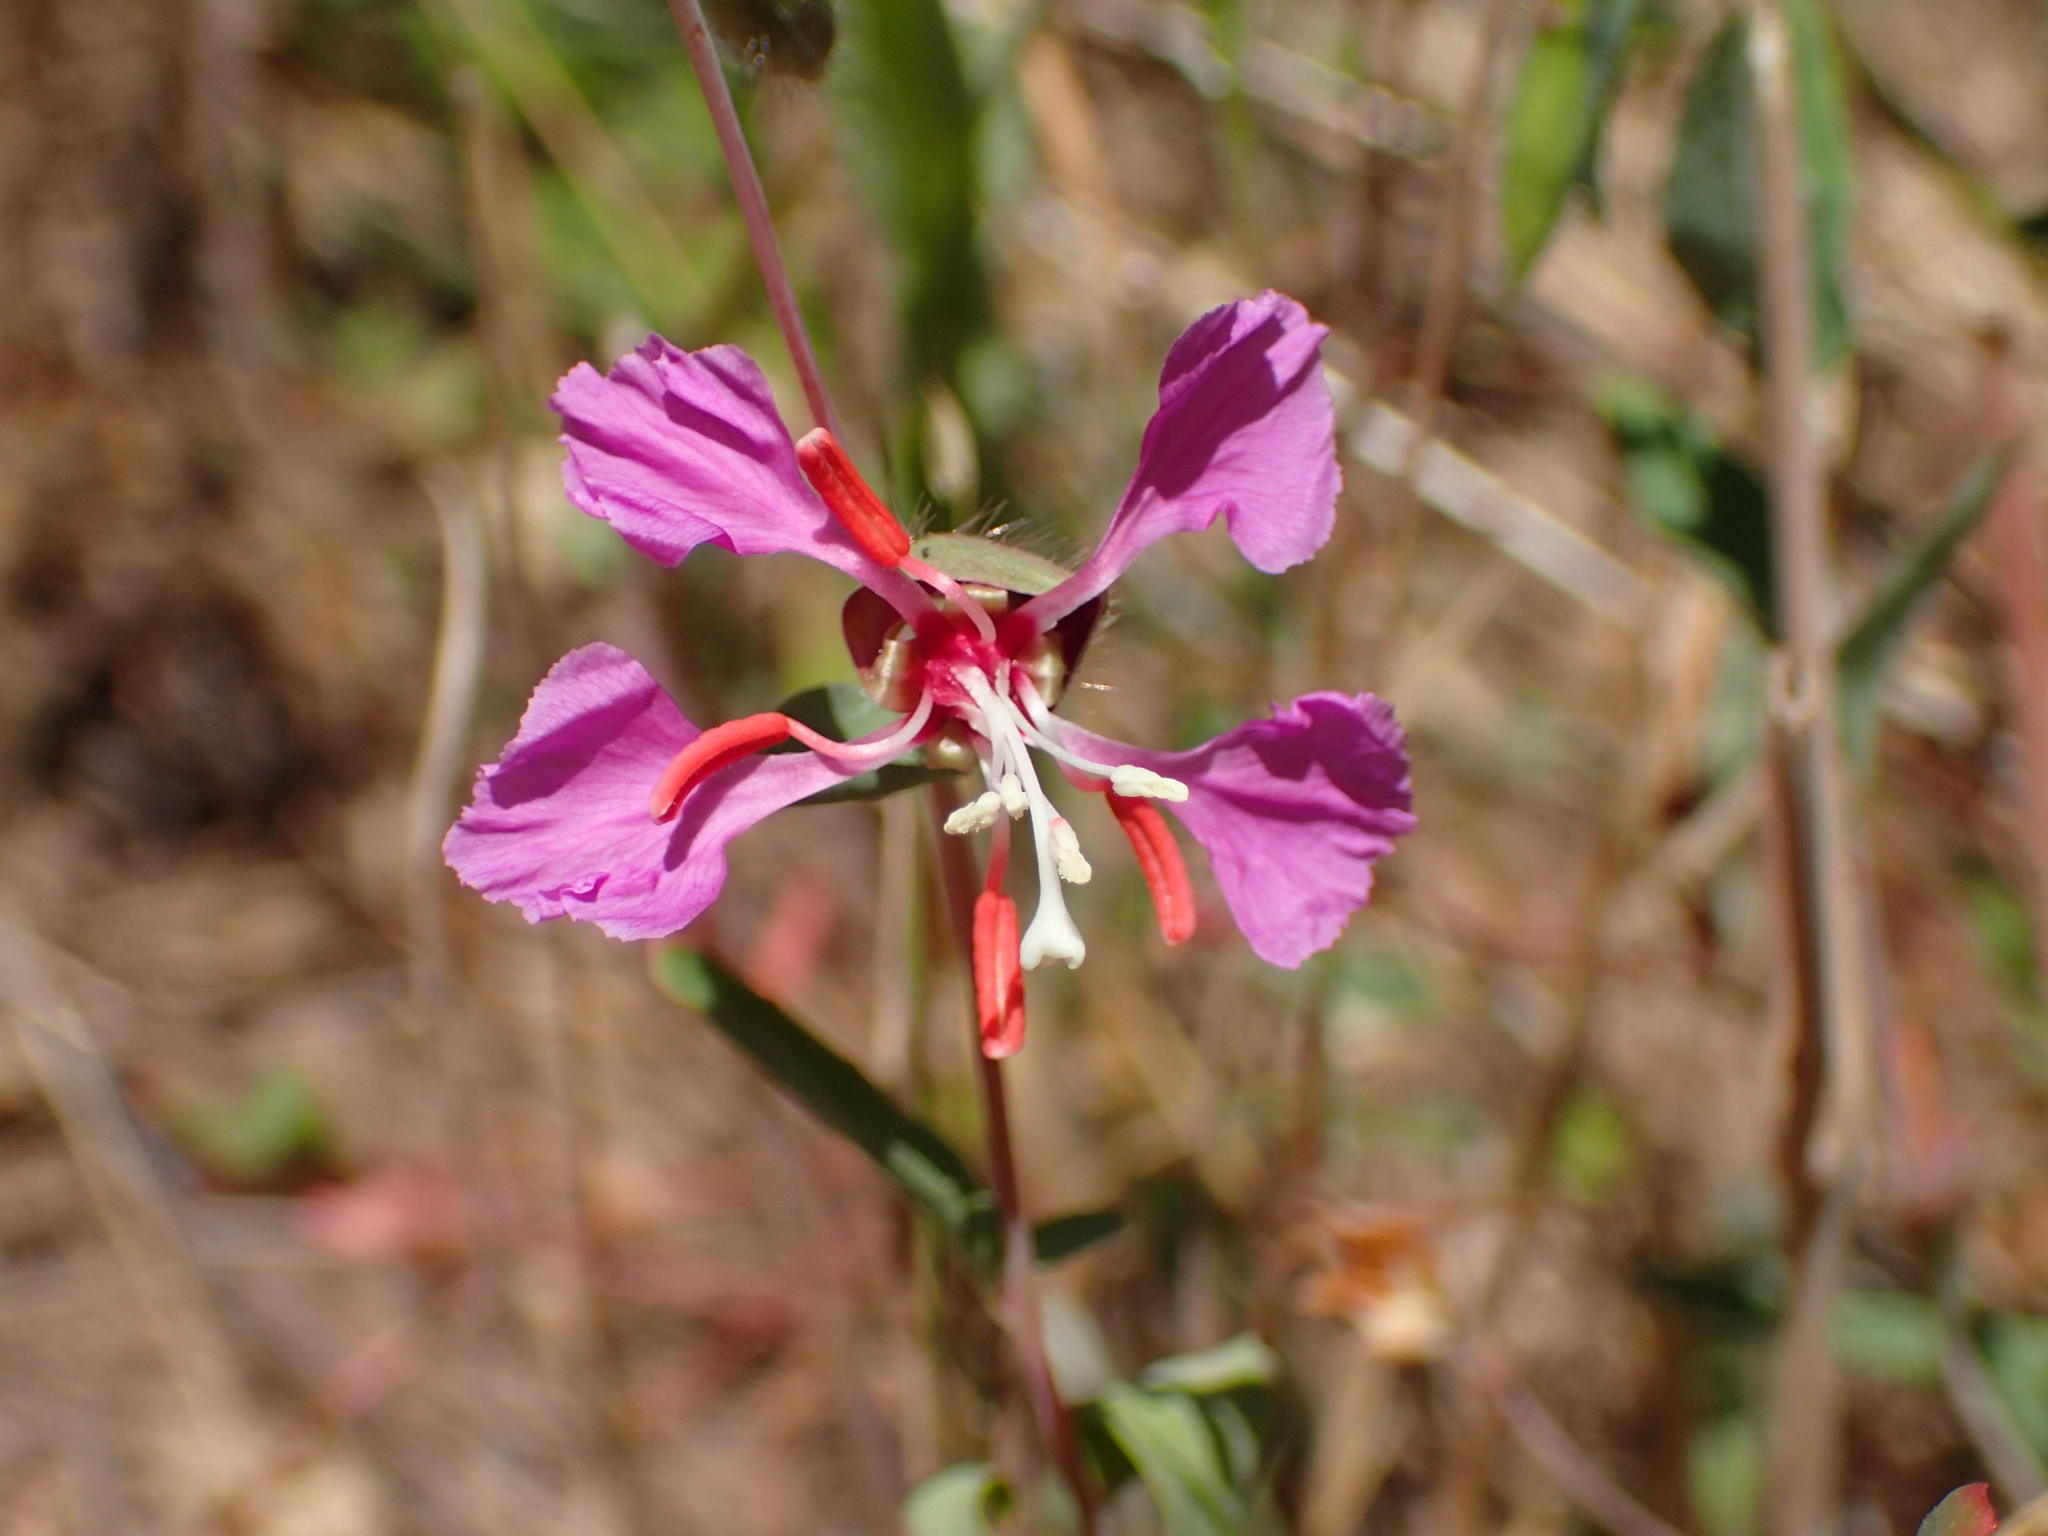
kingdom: Plantae
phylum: Tracheophyta
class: Magnoliopsida
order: Myrtales
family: Onagraceae
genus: Clarkia
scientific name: Clarkia unguiculata
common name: Clarkia
